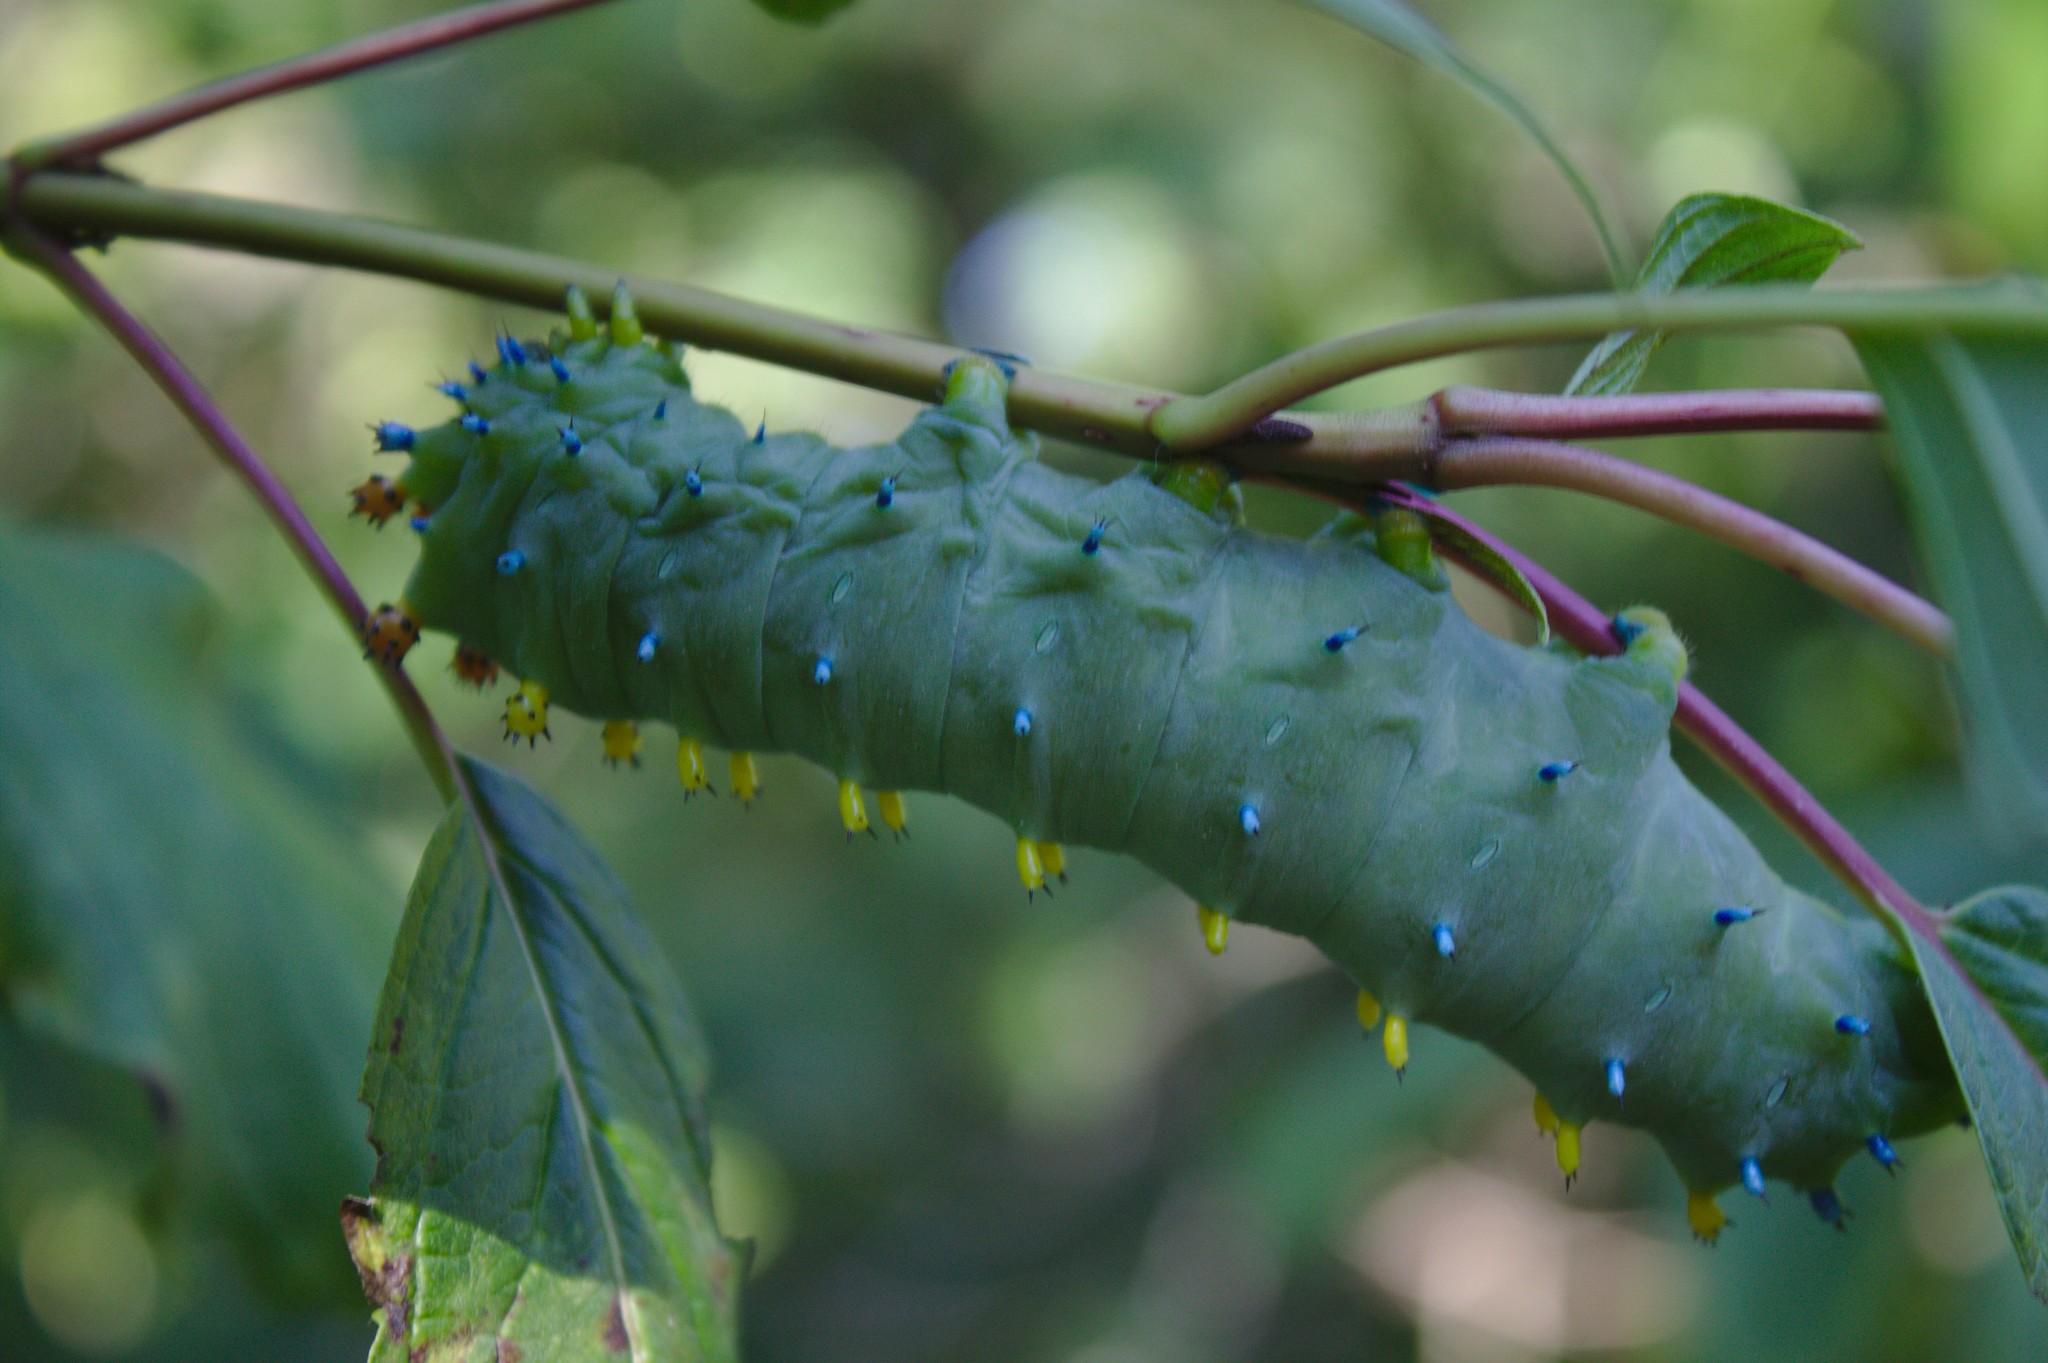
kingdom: Animalia
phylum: Arthropoda
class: Insecta
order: Lepidoptera
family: Saturniidae
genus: Hyalophora
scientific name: Hyalophora cecropia
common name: Cecropia silkmoth
